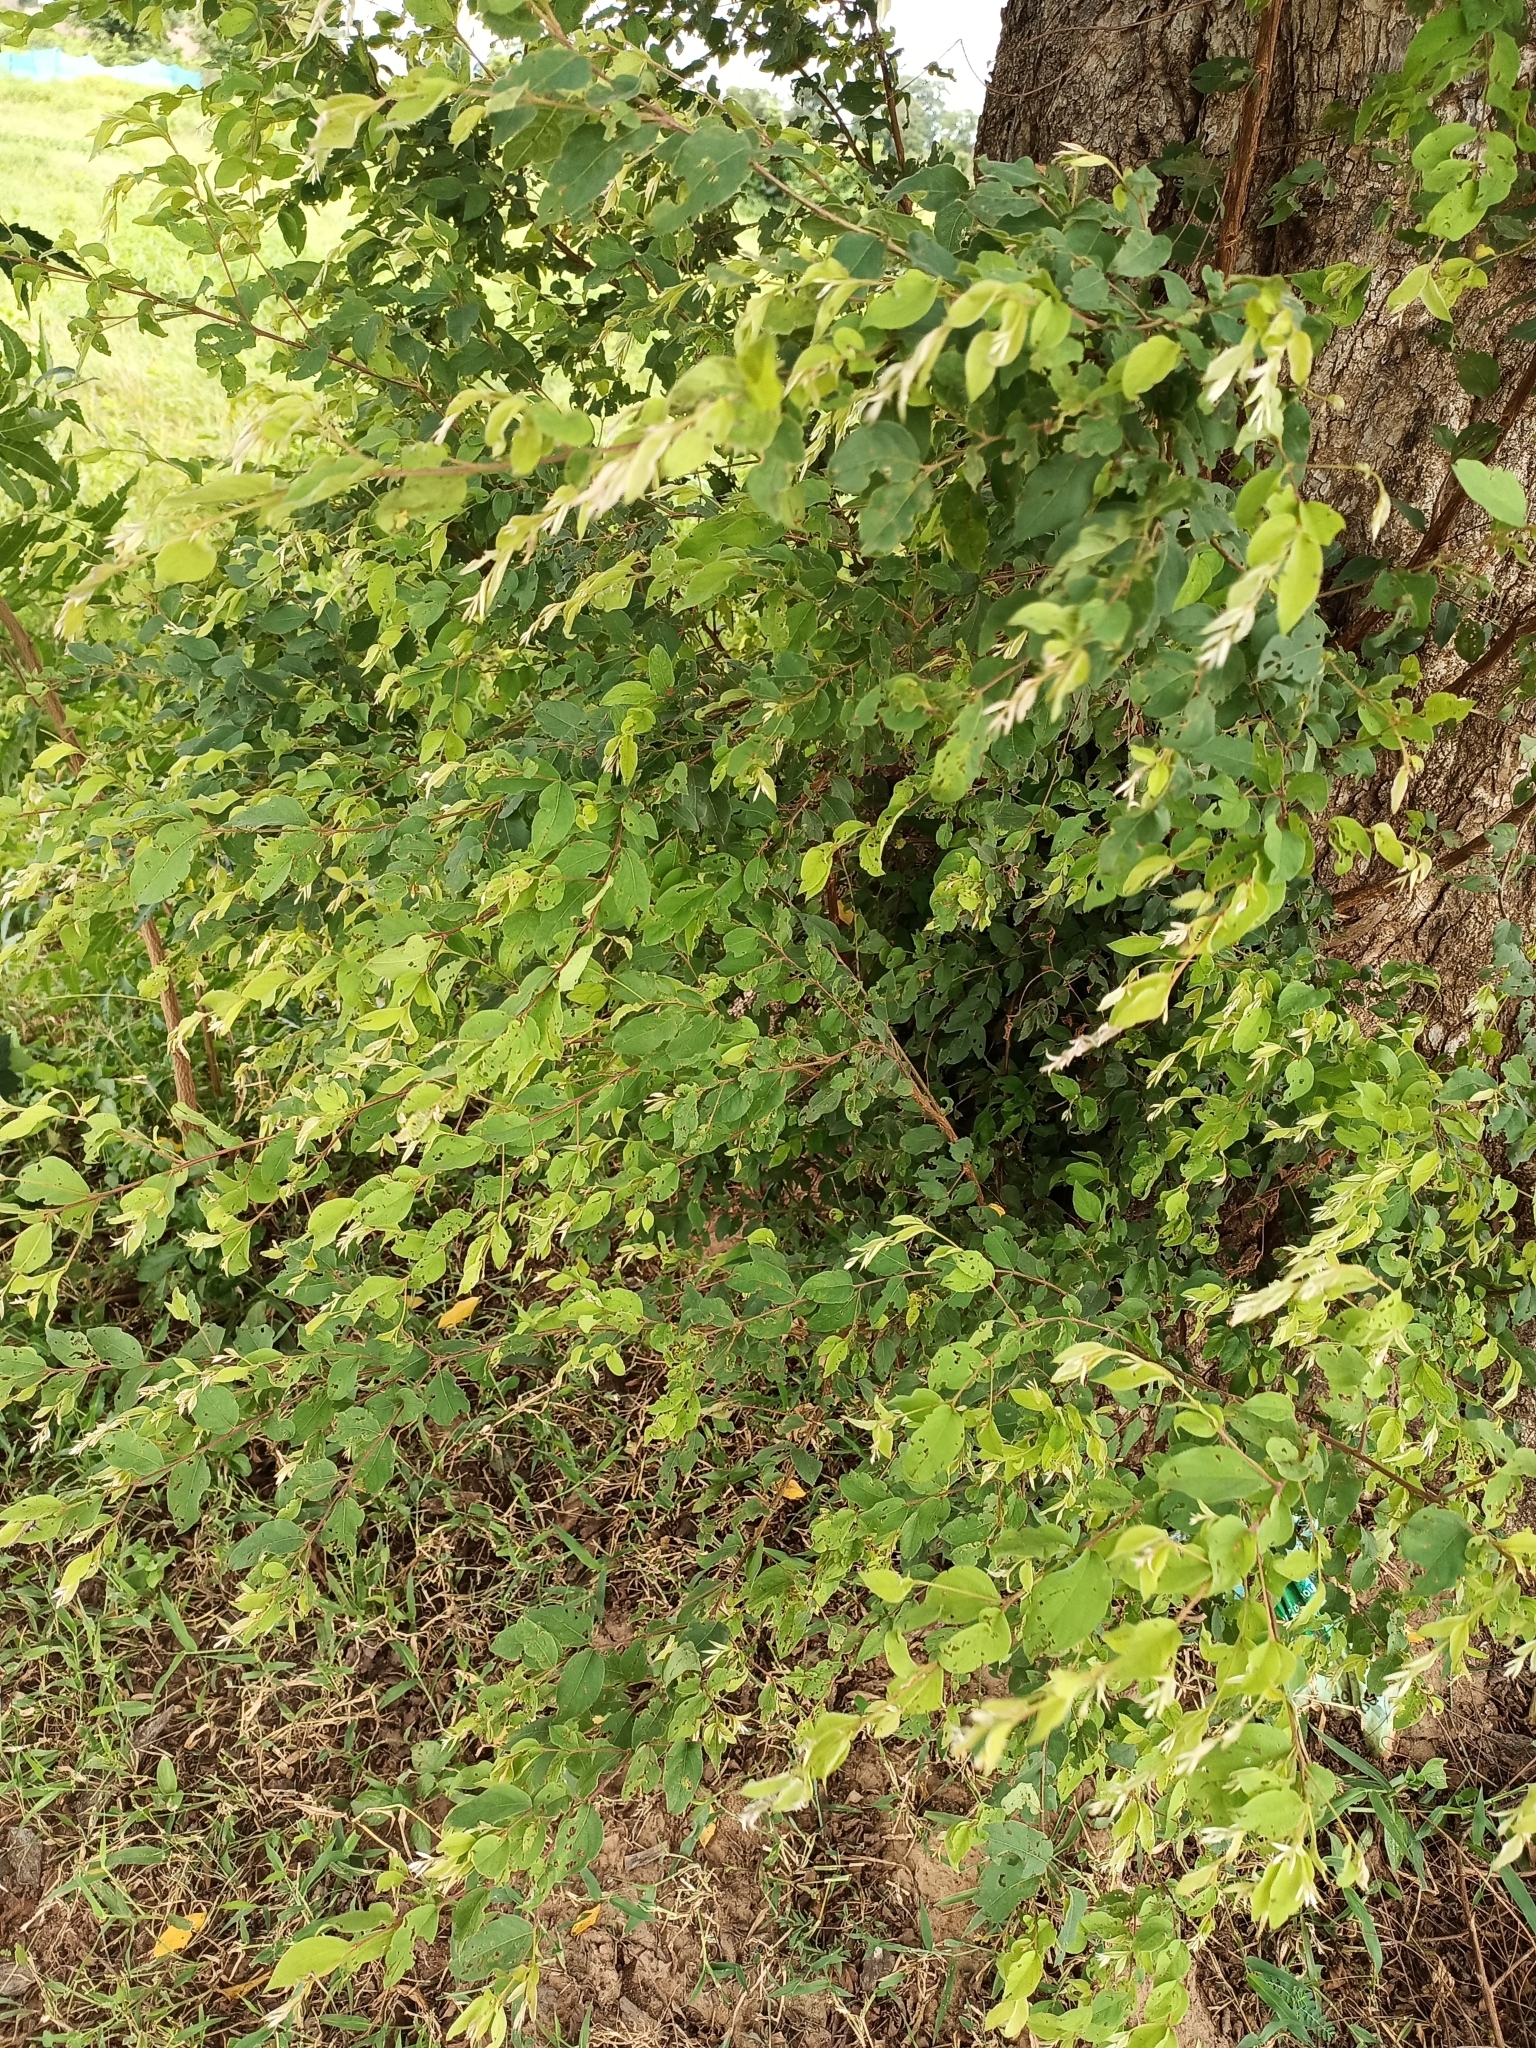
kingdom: Plantae
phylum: Tracheophyta
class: Magnoliopsida
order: Myrtales
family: Combretaceae
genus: Terminalia
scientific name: Terminalia leiocarpa
